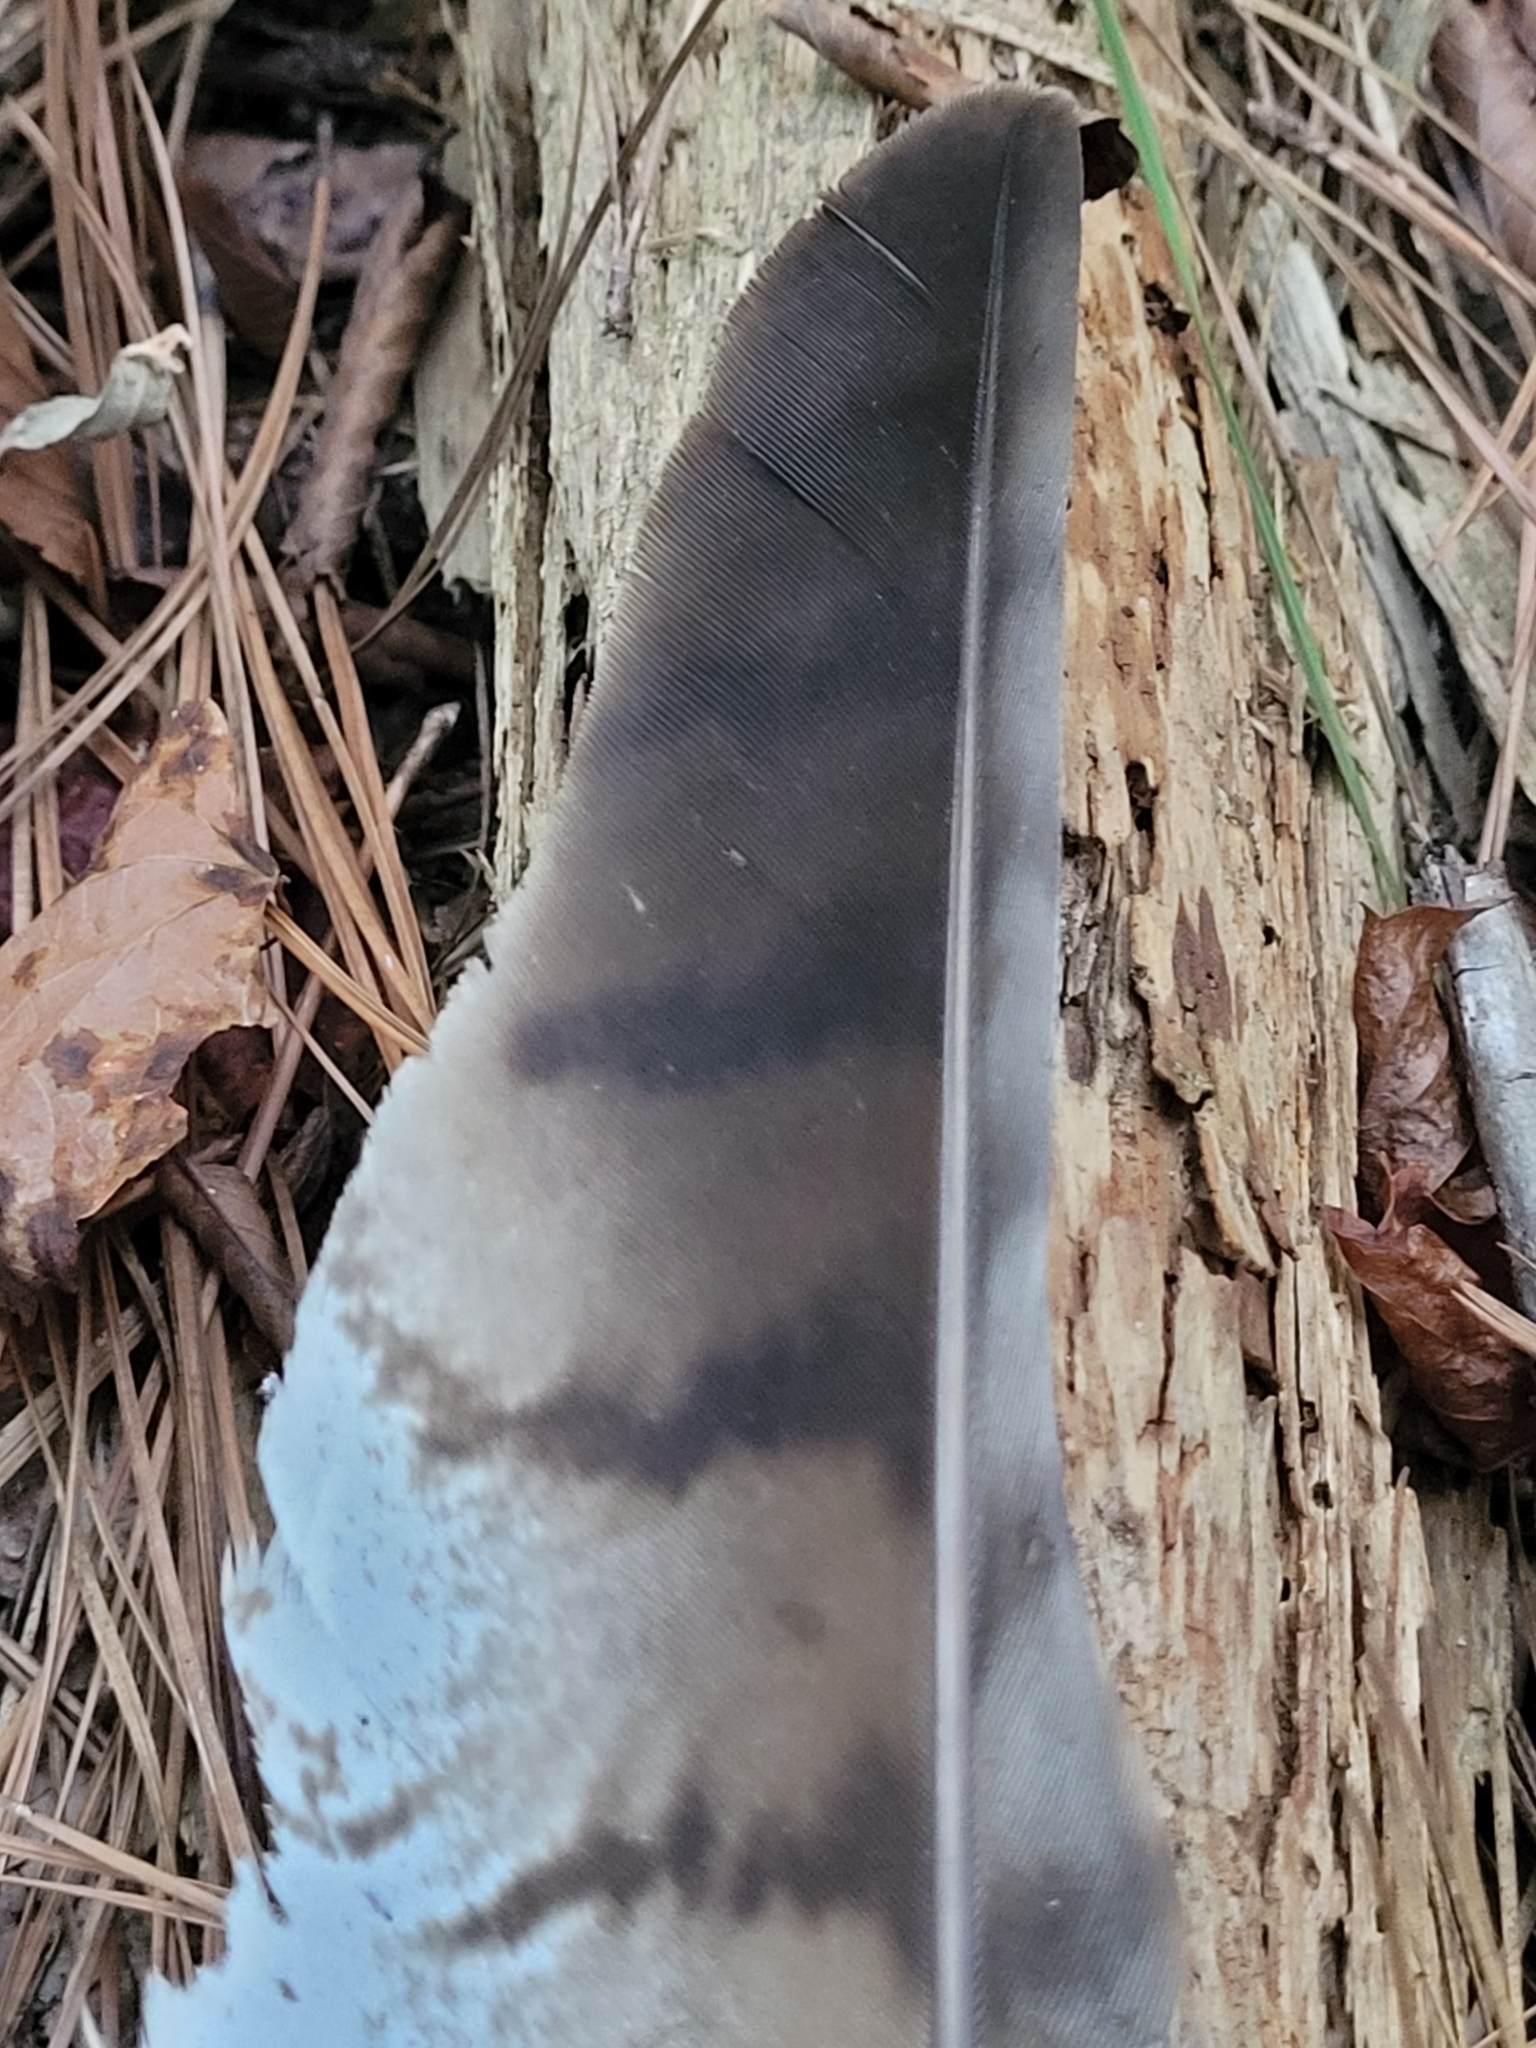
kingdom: Animalia
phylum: Chordata
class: Aves
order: Accipitriformes
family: Accipitridae
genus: Buteo
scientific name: Buteo jamaicensis
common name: Red-tailed hawk
